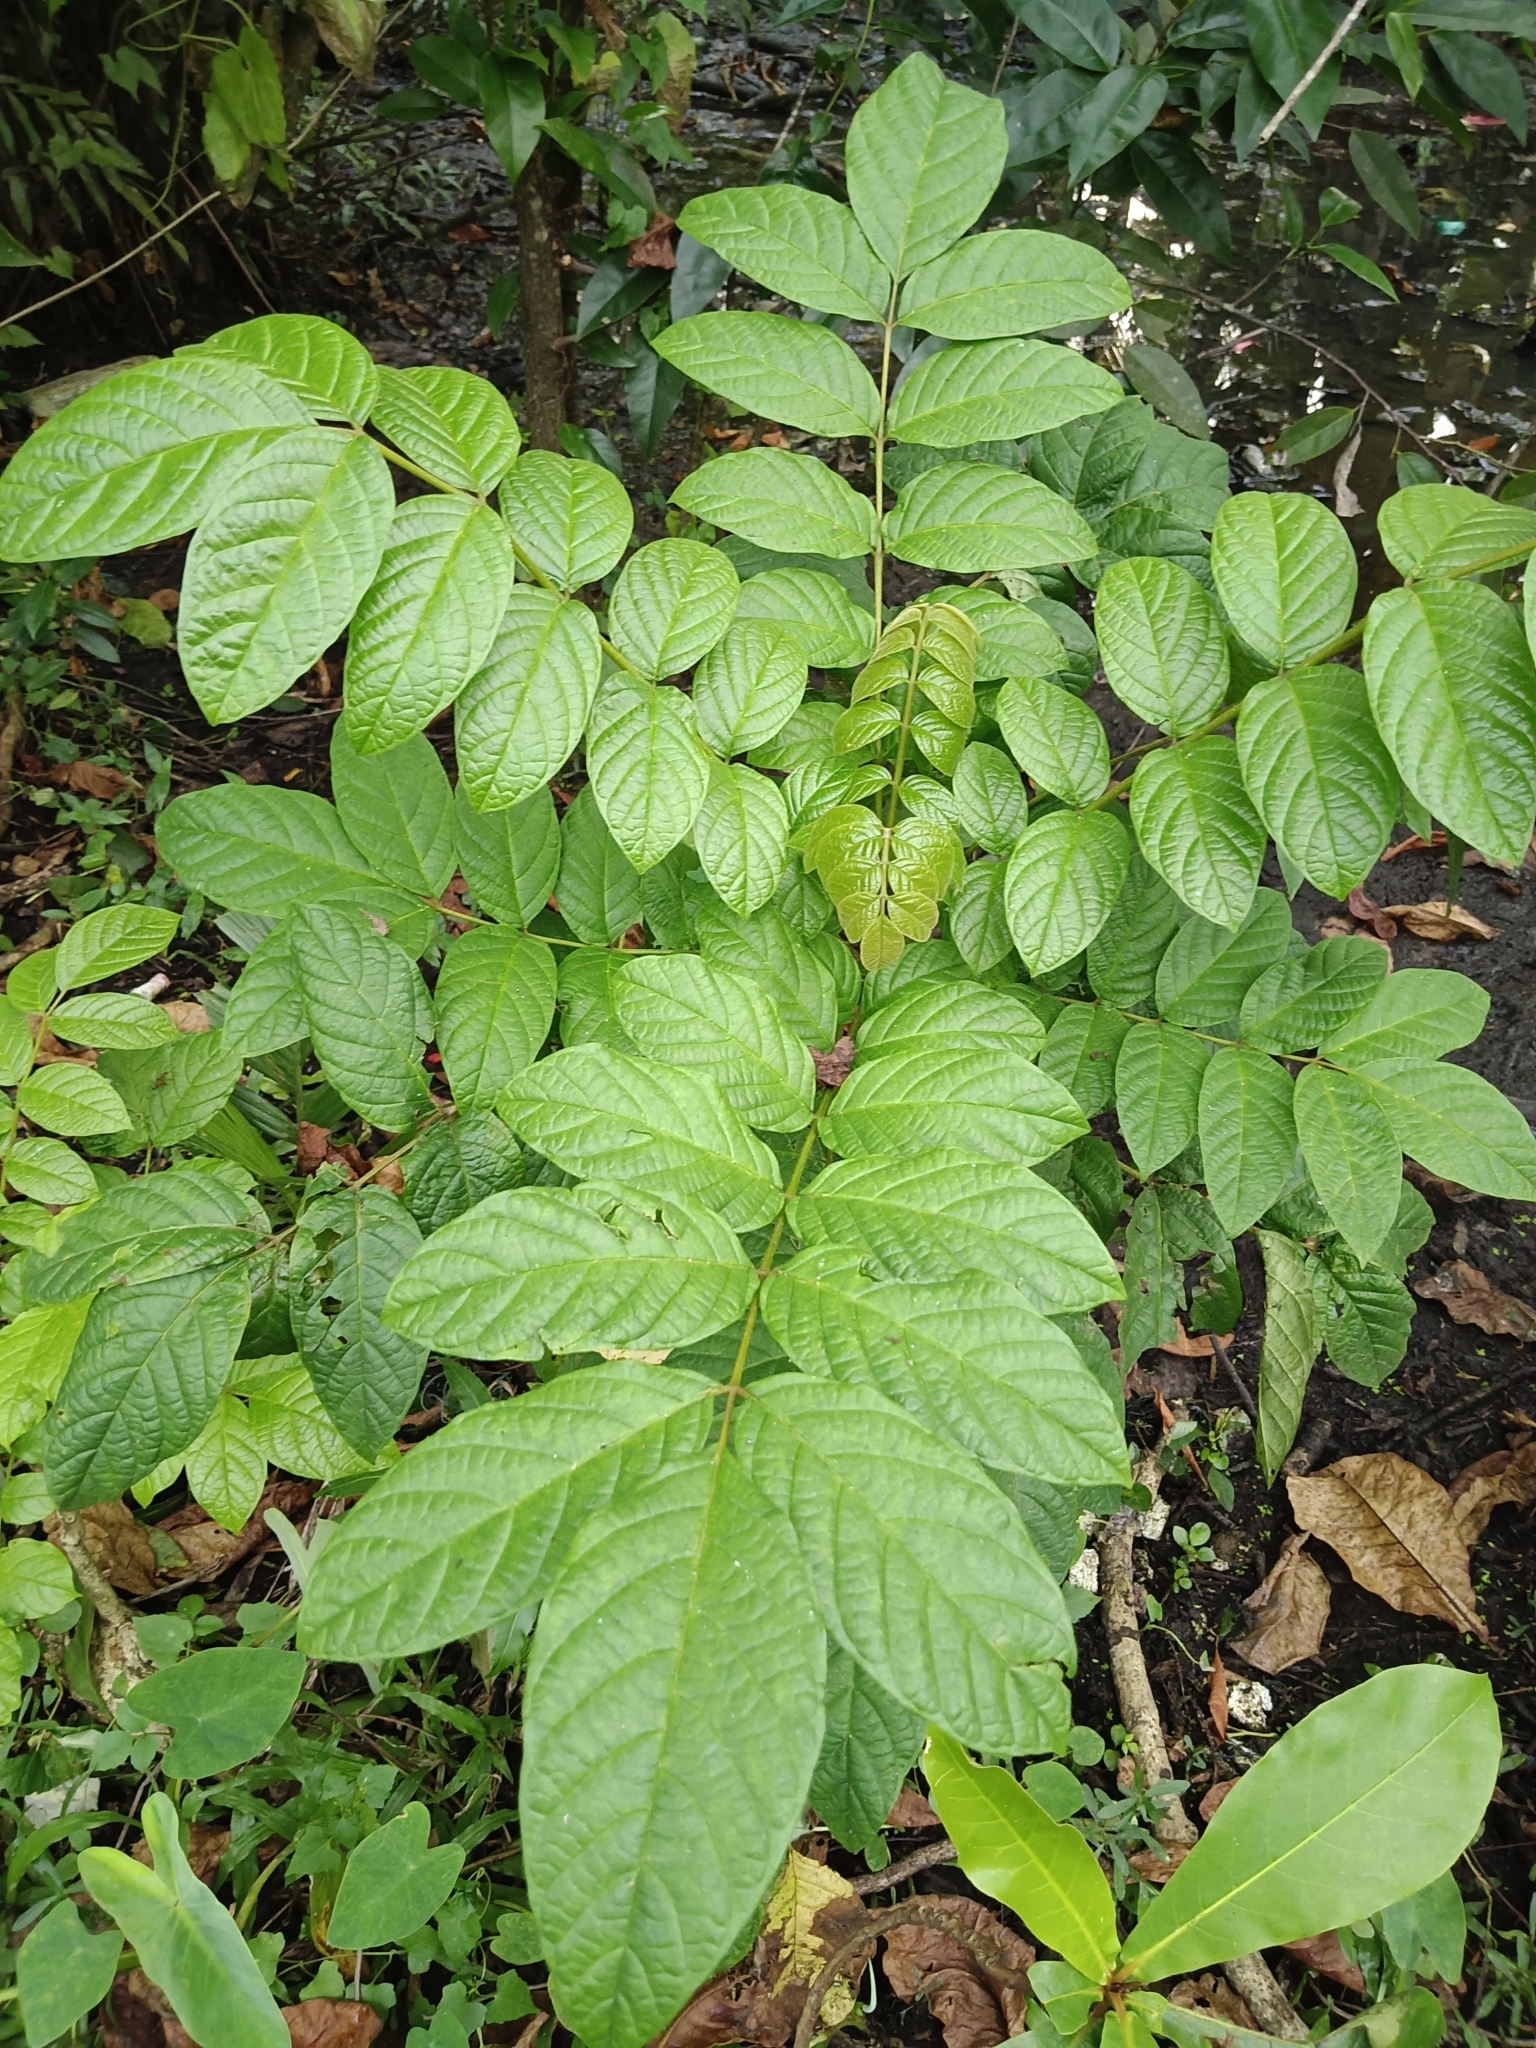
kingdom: Plantae
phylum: Tracheophyta
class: Magnoliopsida
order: Lamiales
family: Bignoniaceae
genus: Spathodea
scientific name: Spathodea campanulata
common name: African tuliptree
